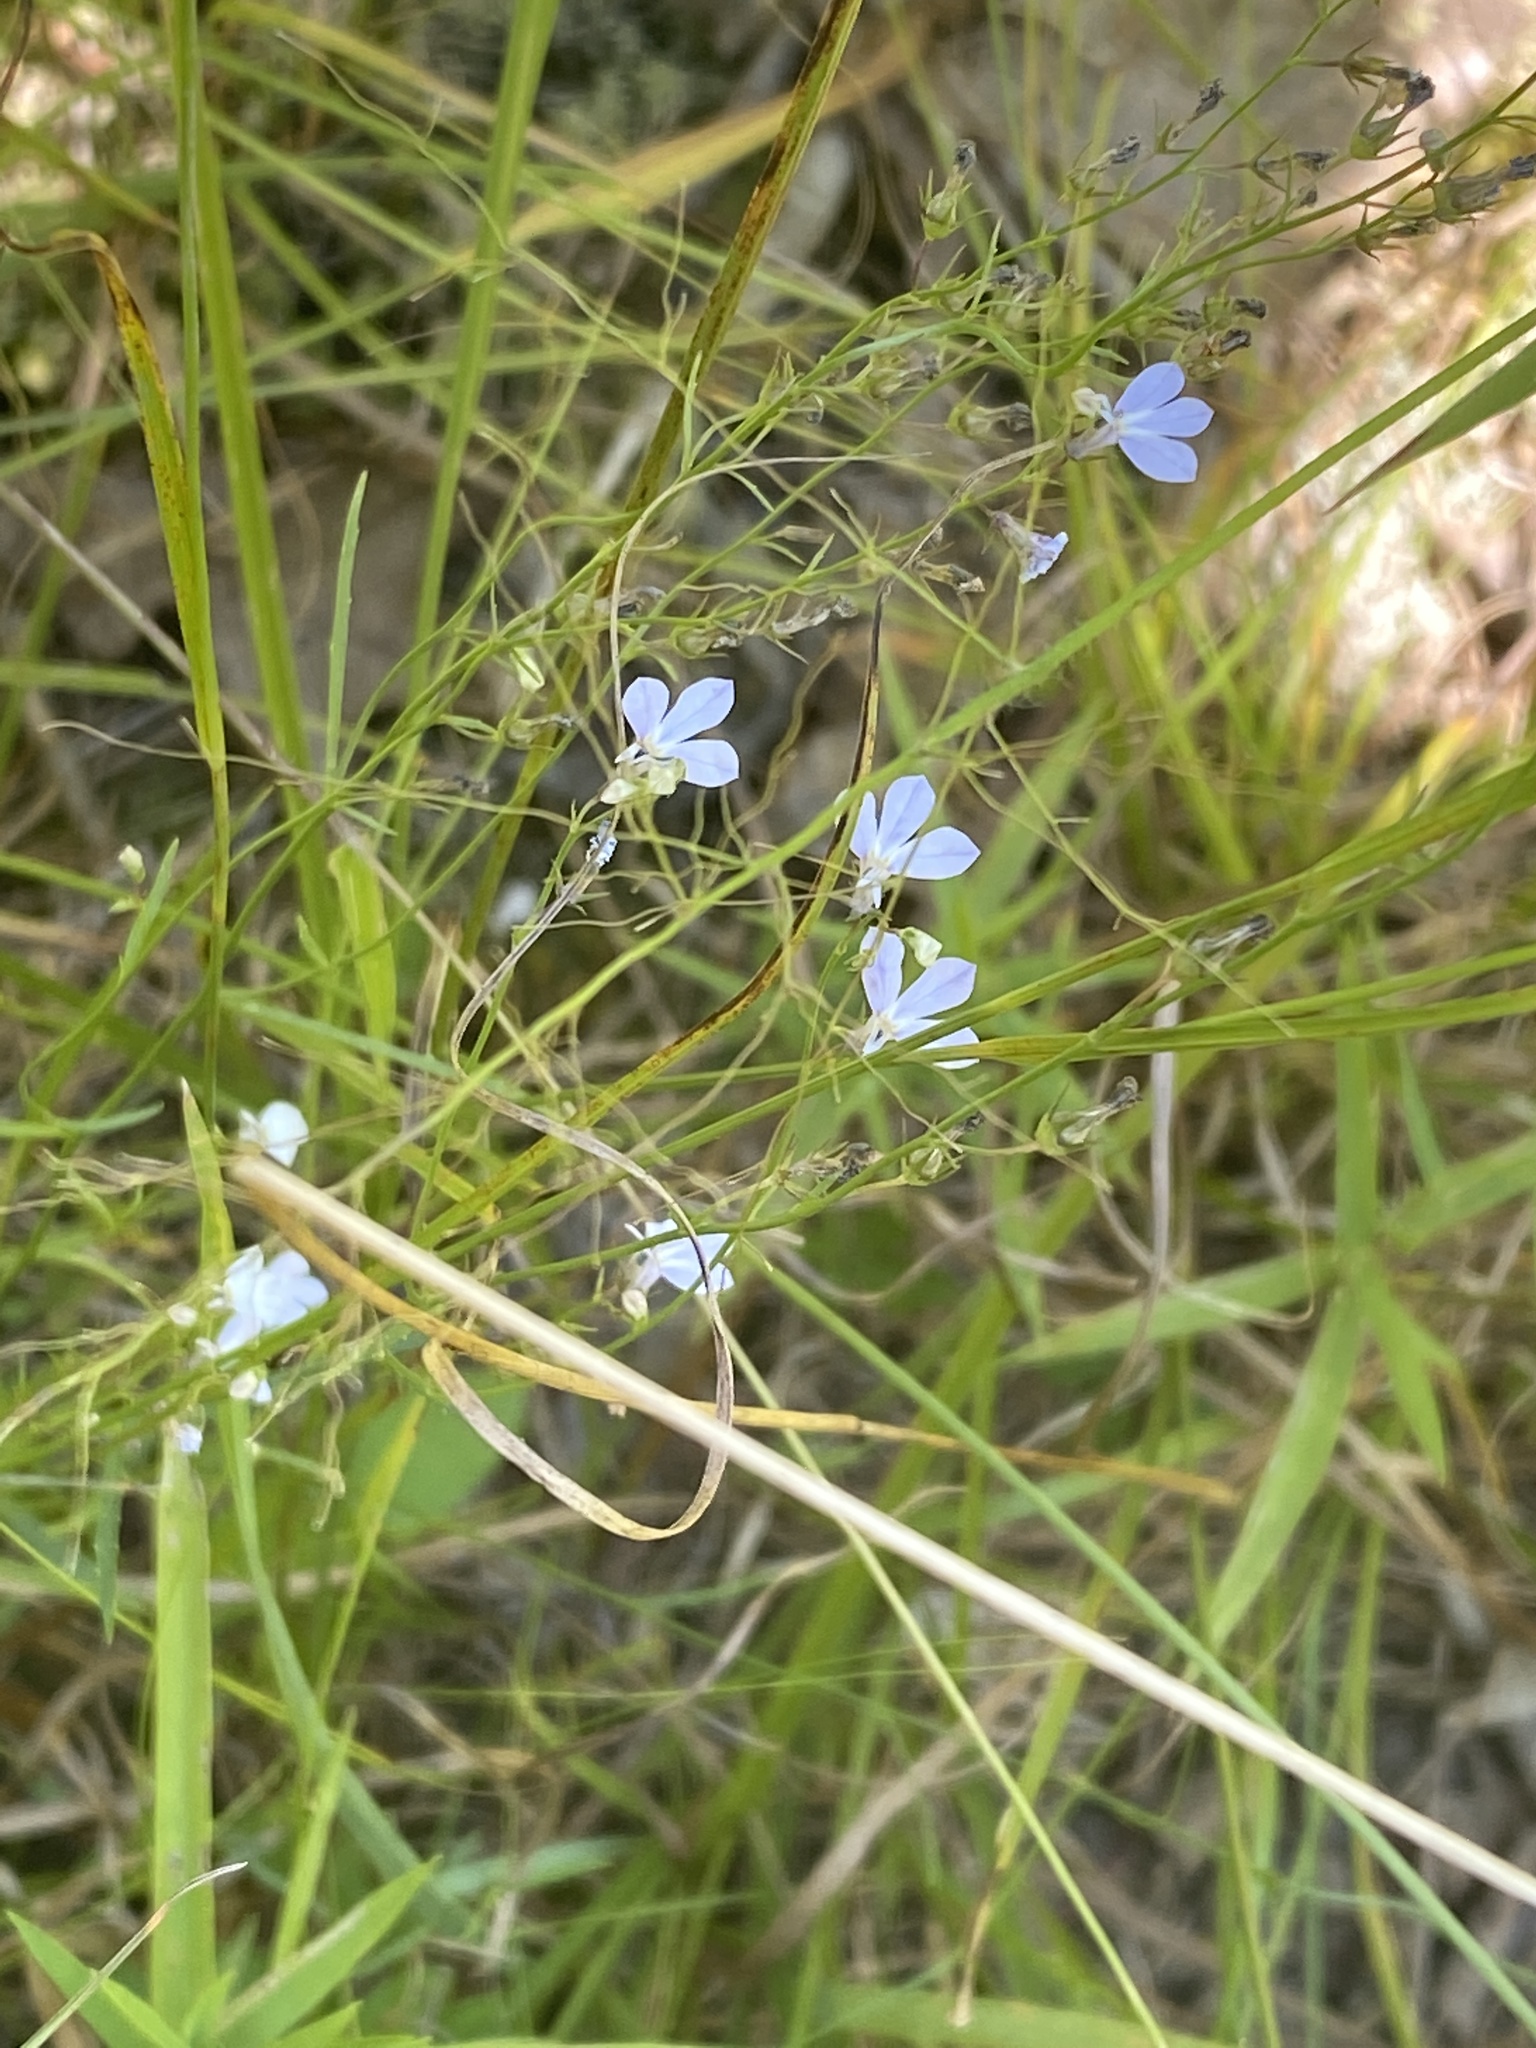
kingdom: Plantae
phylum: Tracheophyta
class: Magnoliopsida
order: Asterales
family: Campanulaceae
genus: Lobelia
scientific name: Lobelia nuttallii
